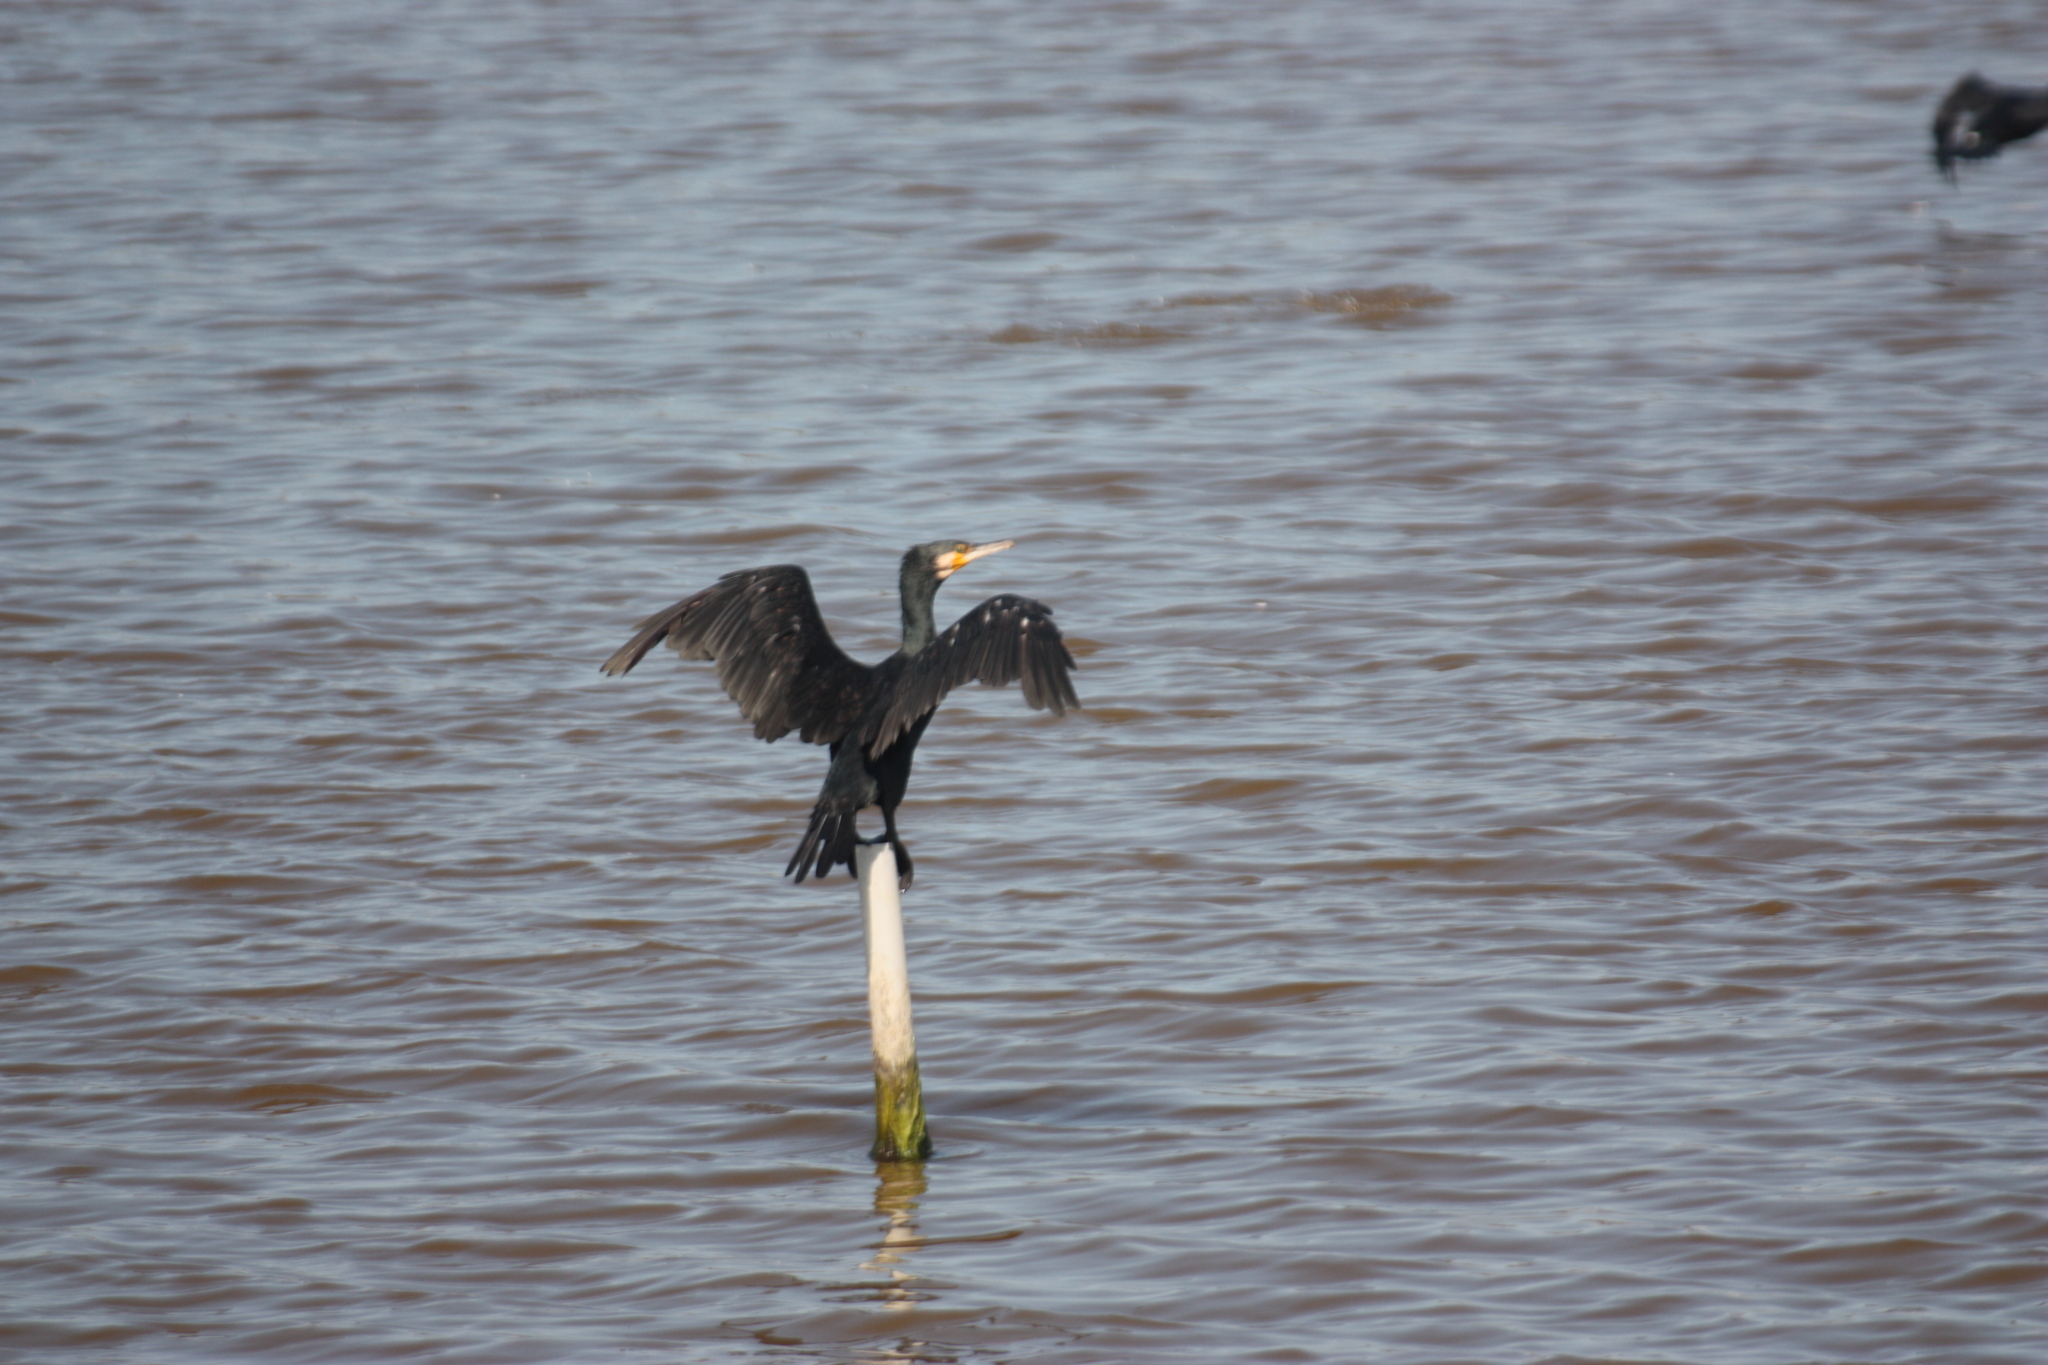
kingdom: Animalia
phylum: Chordata
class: Aves
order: Suliformes
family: Phalacrocoracidae
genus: Phalacrocorax
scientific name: Phalacrocorax carbo
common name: Great cormorant
